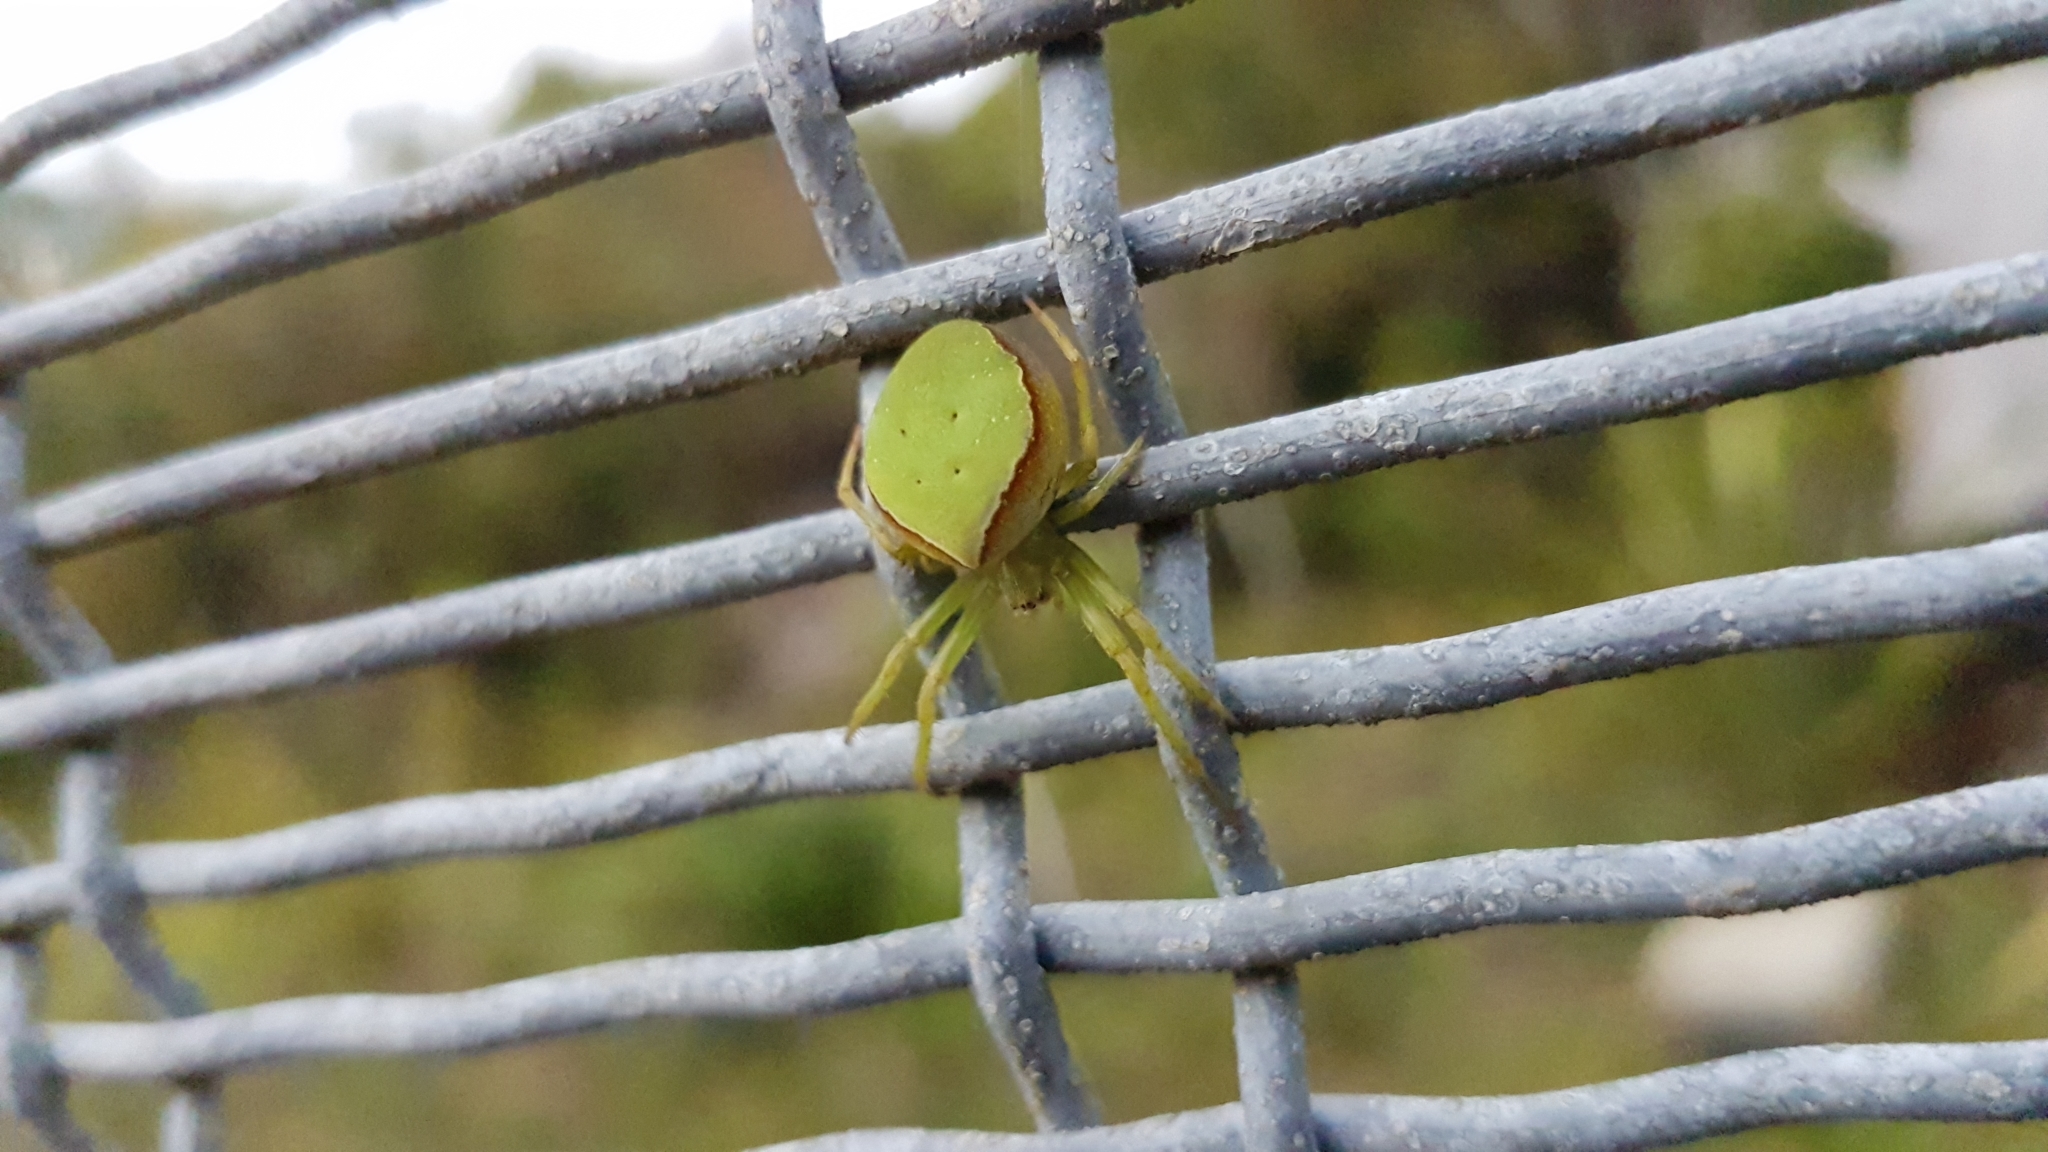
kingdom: Animalia
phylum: Arthropoda
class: Arachnida
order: Araneae
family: Araneidae
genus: Colaranea
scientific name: Colaranea viriditas
